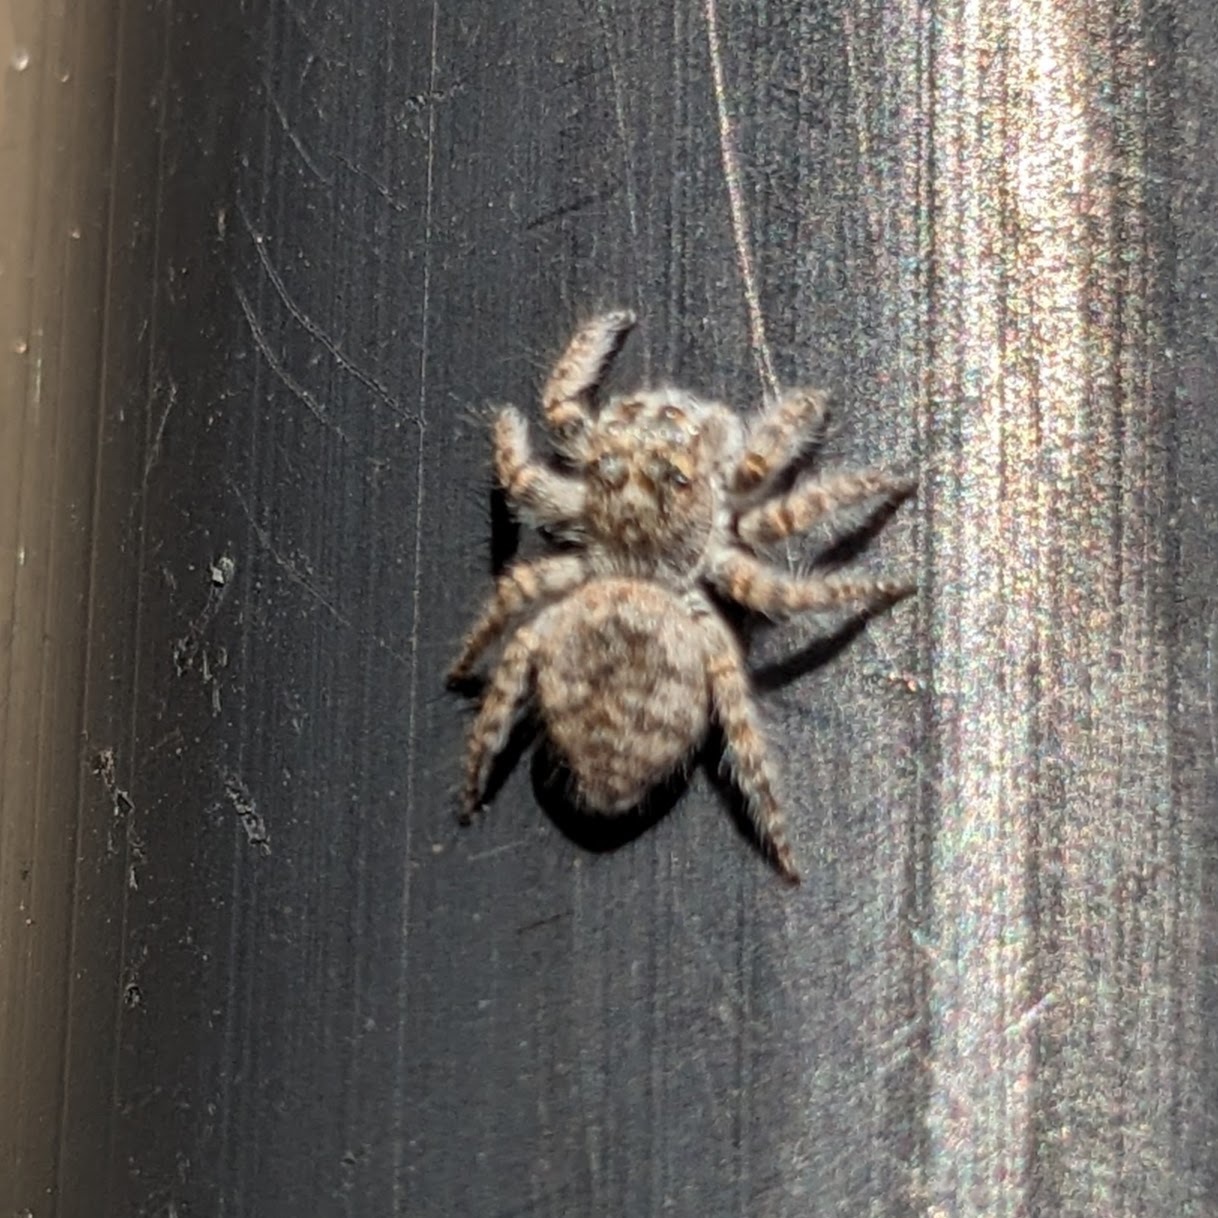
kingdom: Animalia
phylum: Arthropoda
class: Arachnida
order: Araneae
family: Salticidae
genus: Philaeus
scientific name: Philaeus chrysops
